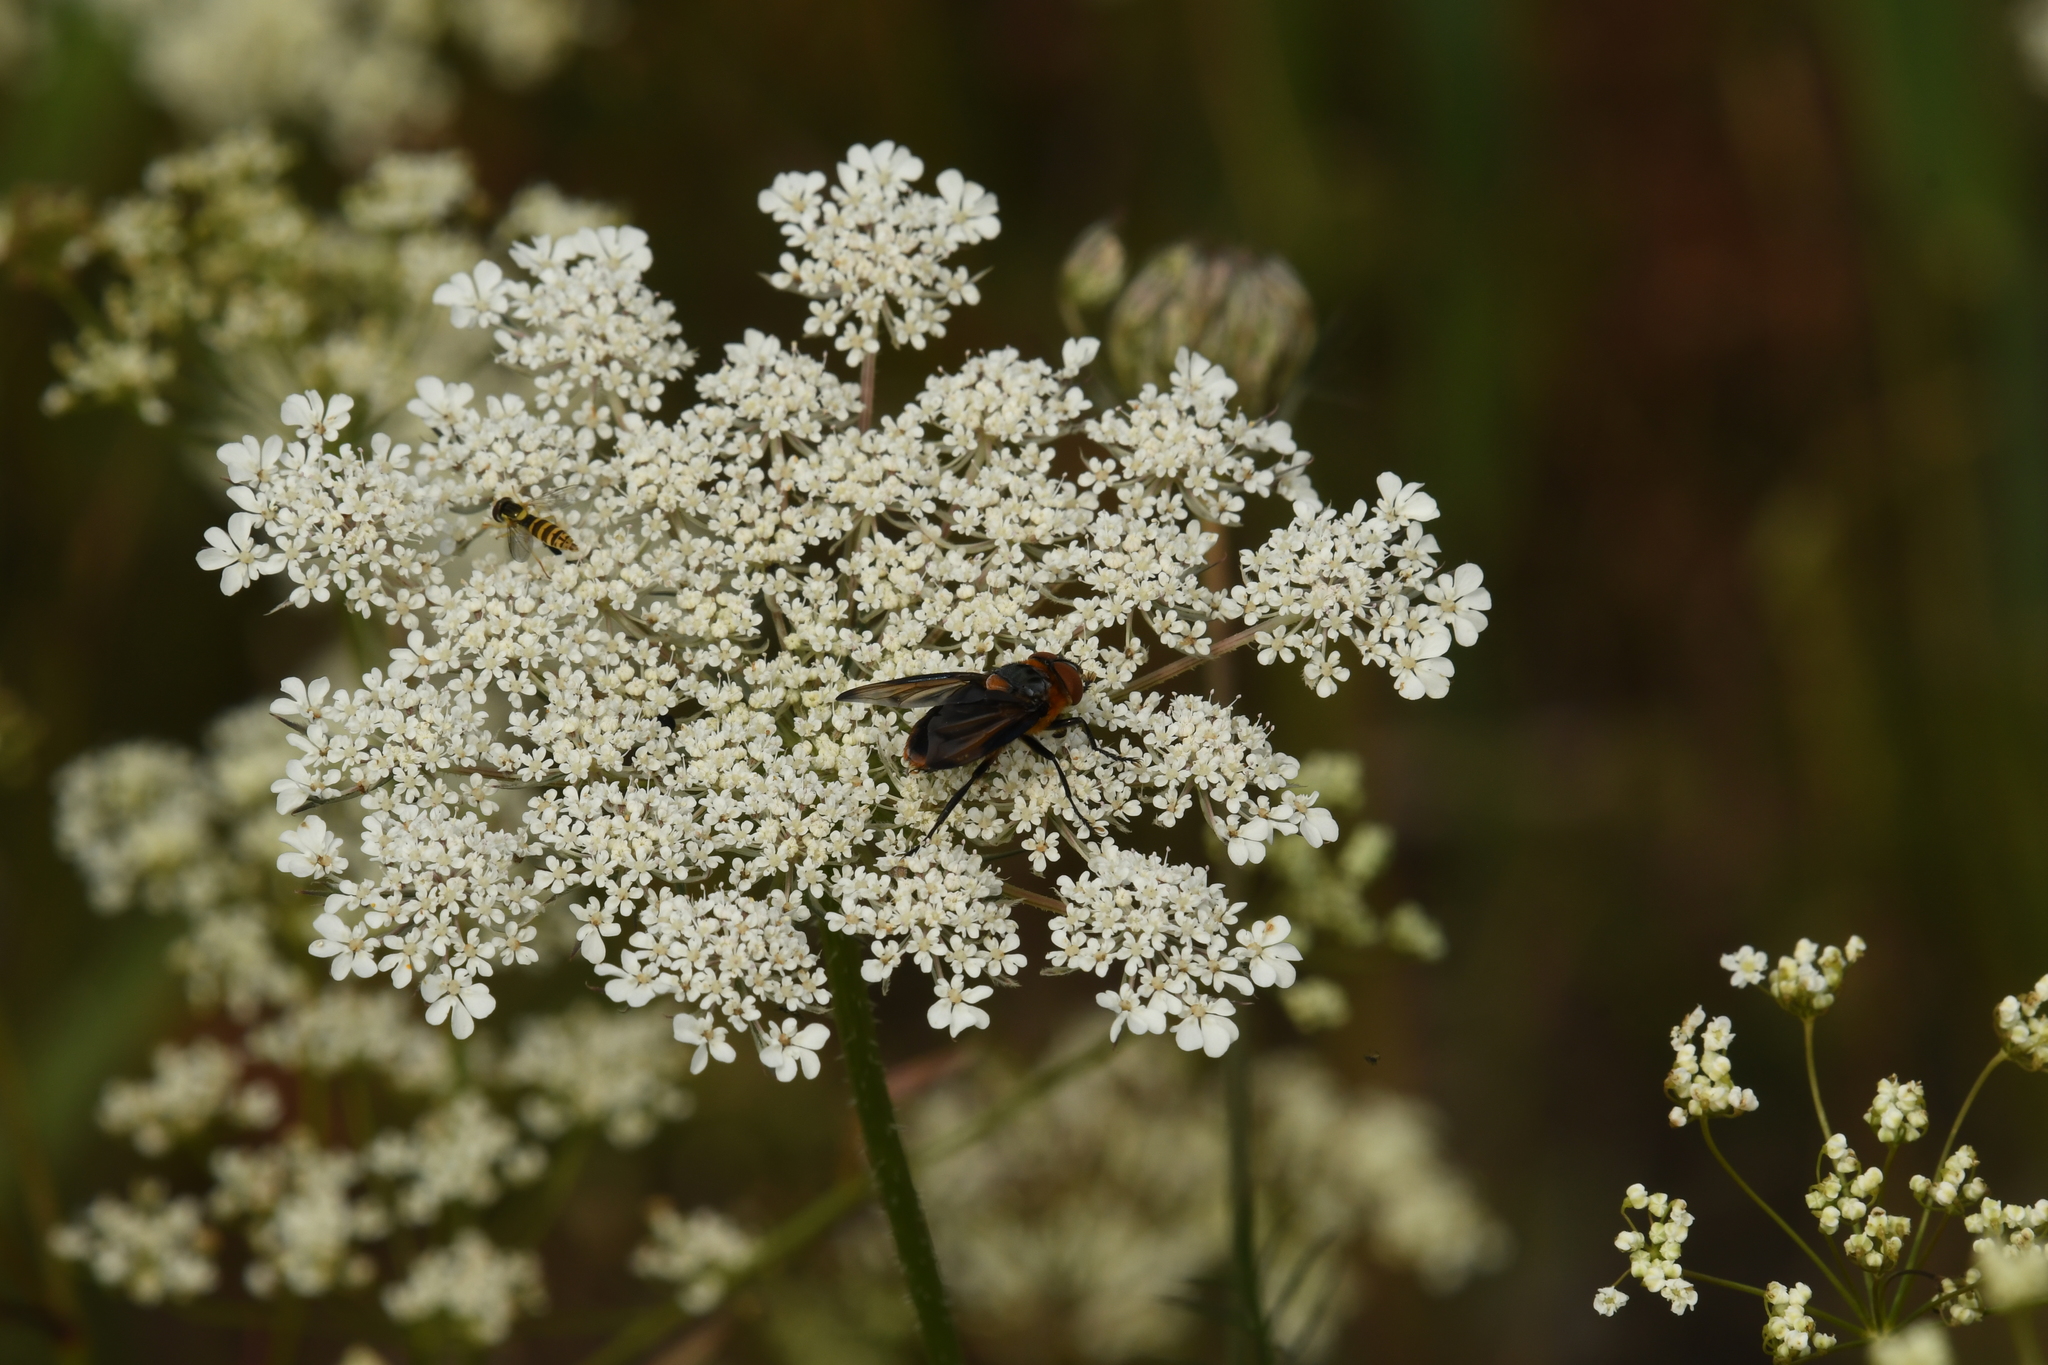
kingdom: Animalia
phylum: Arthropoda
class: Insecta
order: Diptera
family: Tachinidae
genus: Phasia
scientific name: Phasia hemiptera
